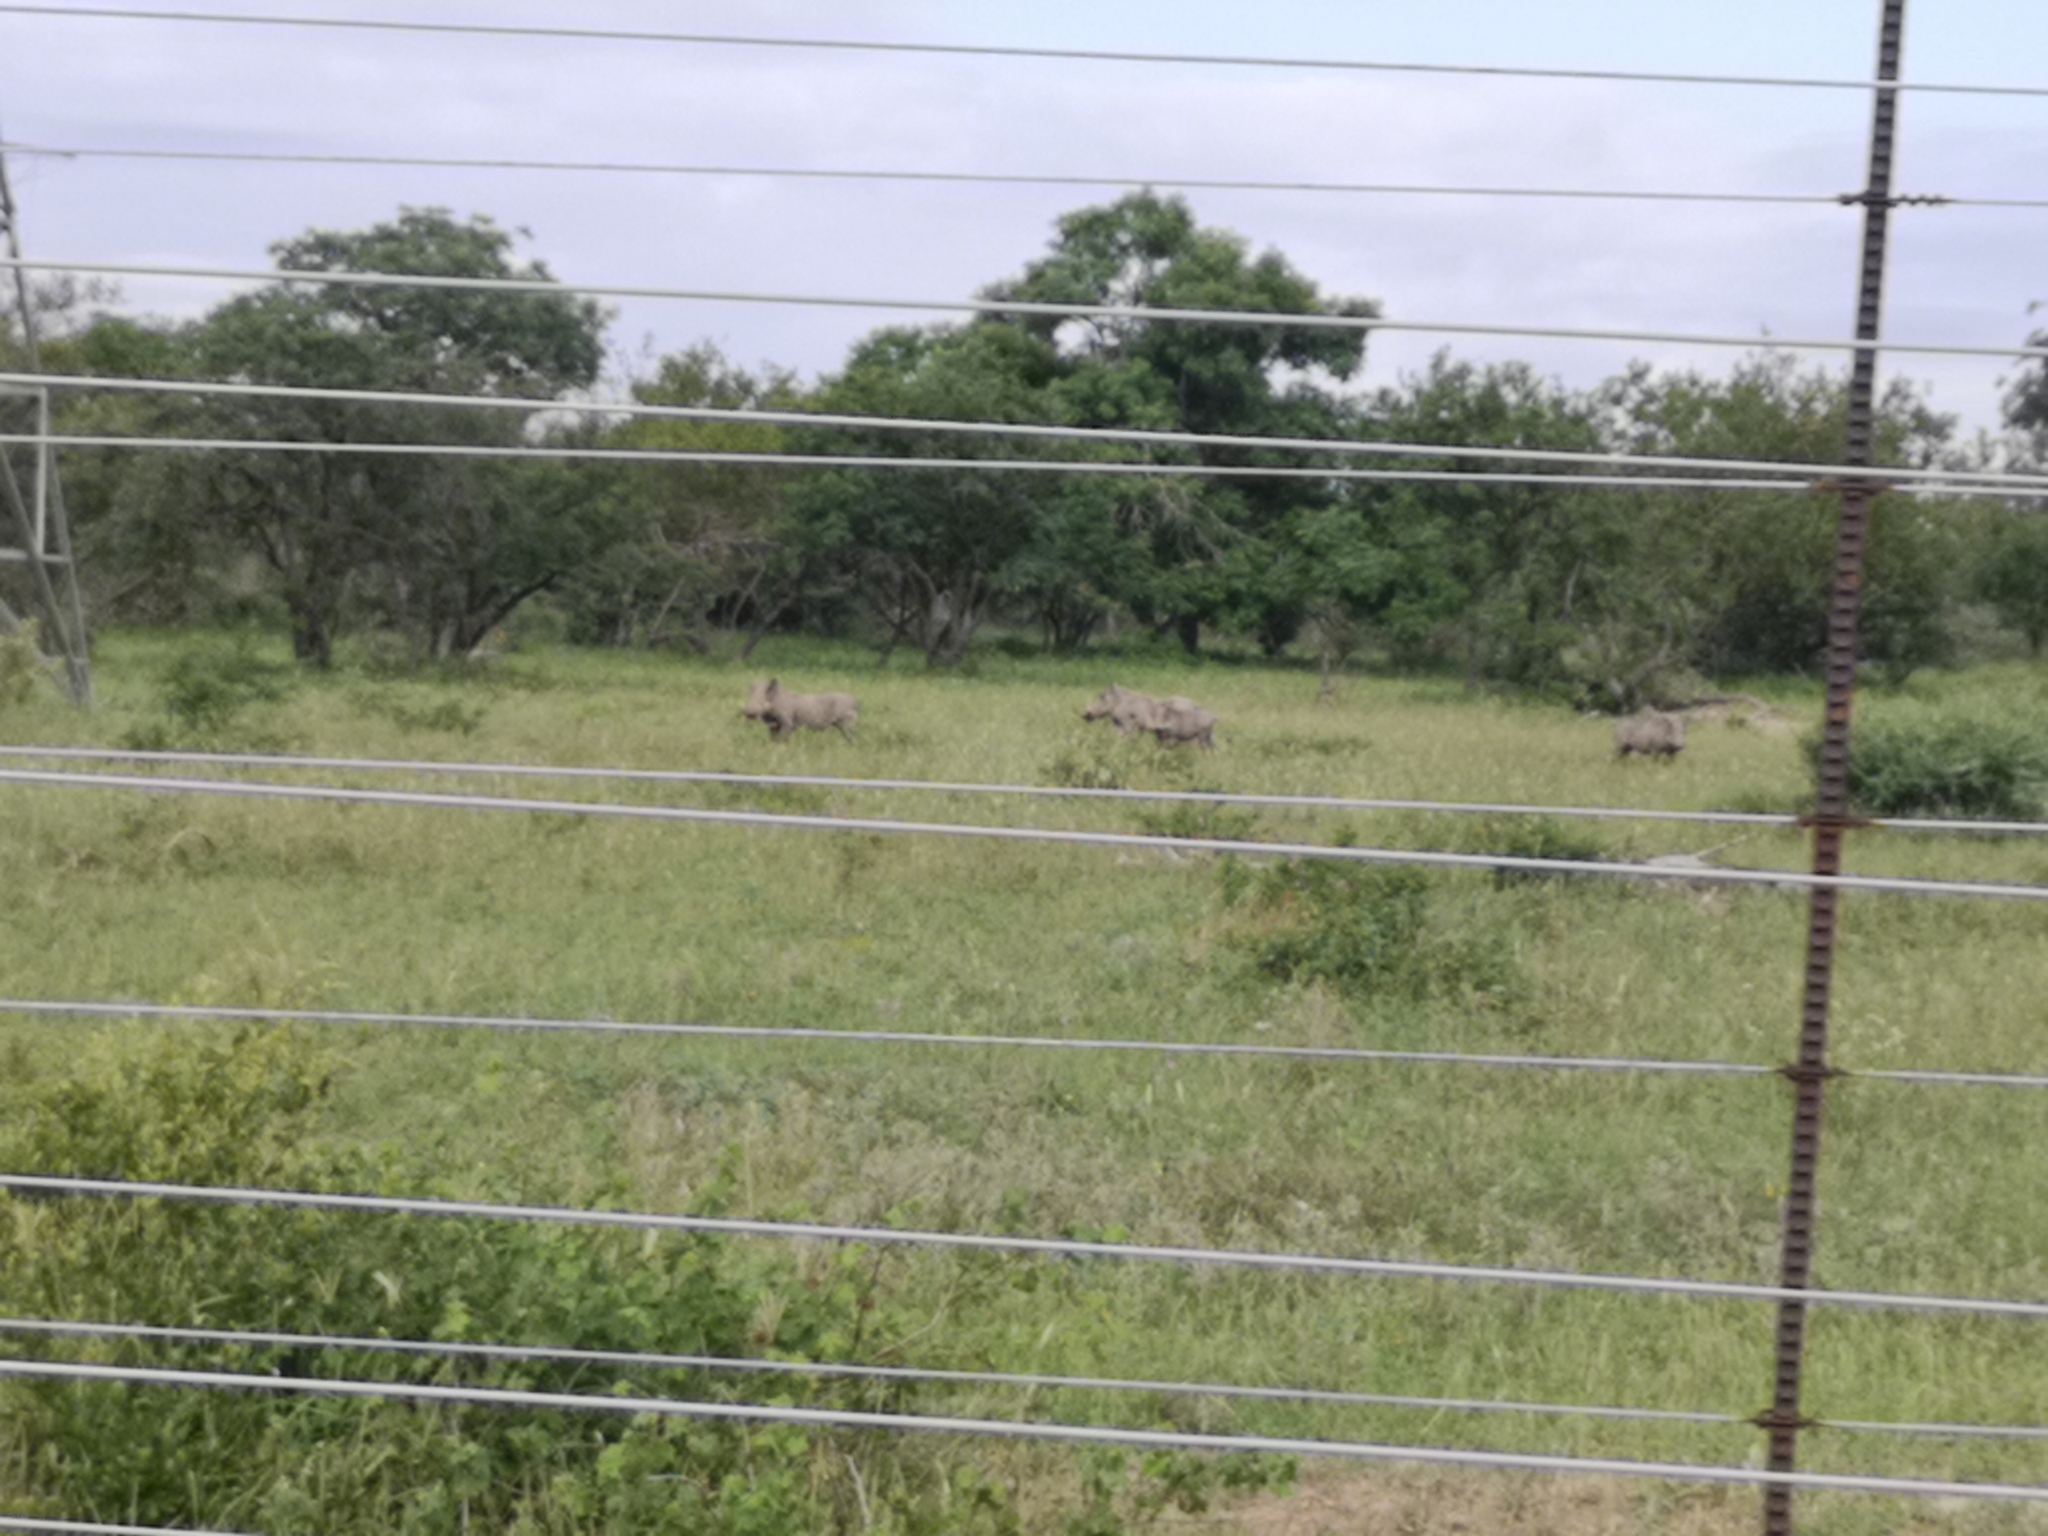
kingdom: Animalia
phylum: Chordata
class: Mammalia
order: Artiodactyla
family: Suidae
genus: Phacochoerus
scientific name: Phacochoerus africanus
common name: Common warthog
